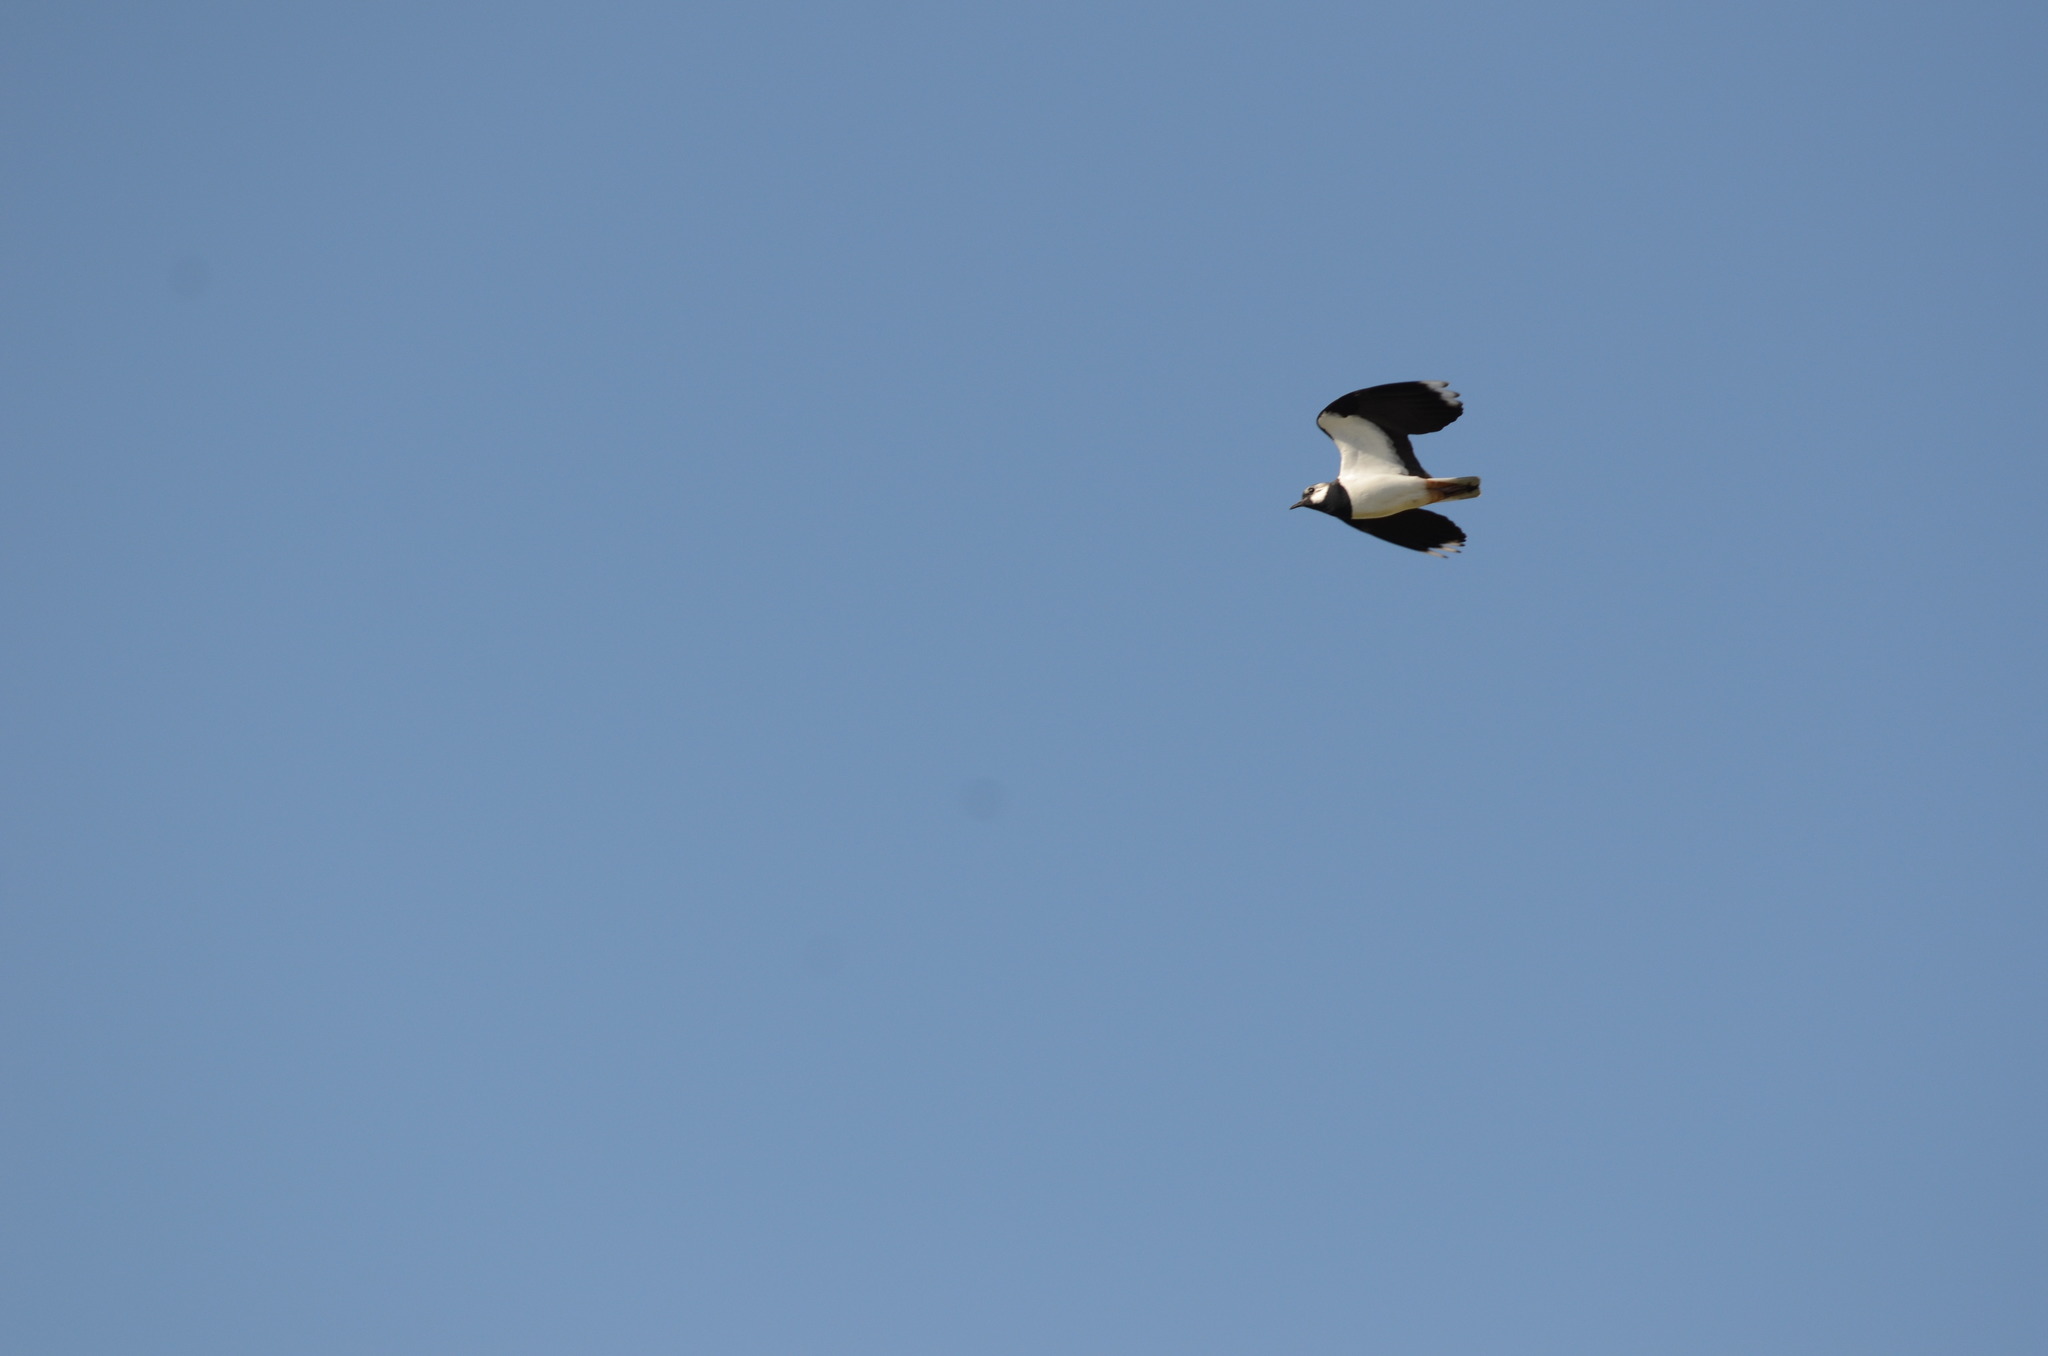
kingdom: Animalia
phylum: Chordata
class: Aves
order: Charadriiformes
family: Charadriidae
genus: Vanellus
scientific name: Vanellus vanellus
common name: Northern lapwing
